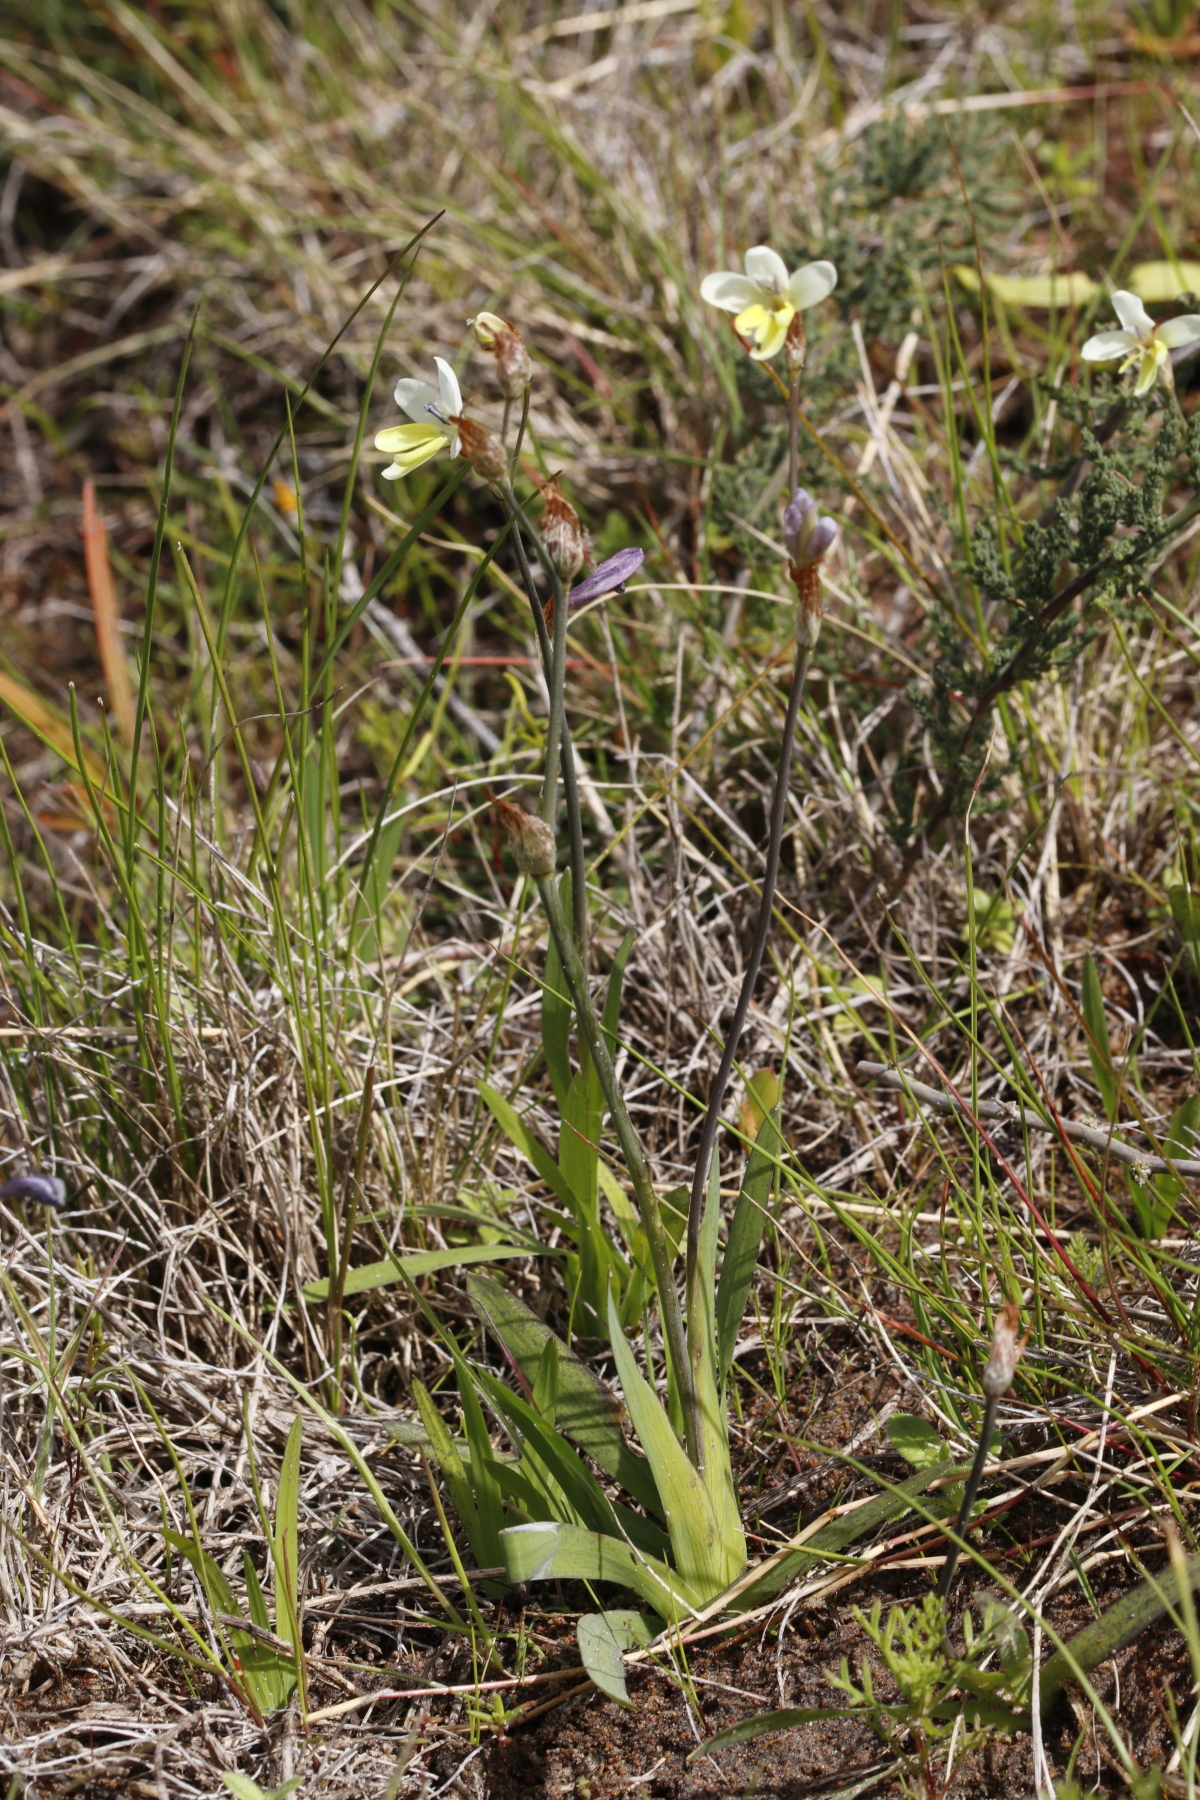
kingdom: Plantae
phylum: Tracheophyta
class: Liliopsida
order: Asparagales
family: Iridaceae
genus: Sparaxis
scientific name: Sparaxis parviflora
